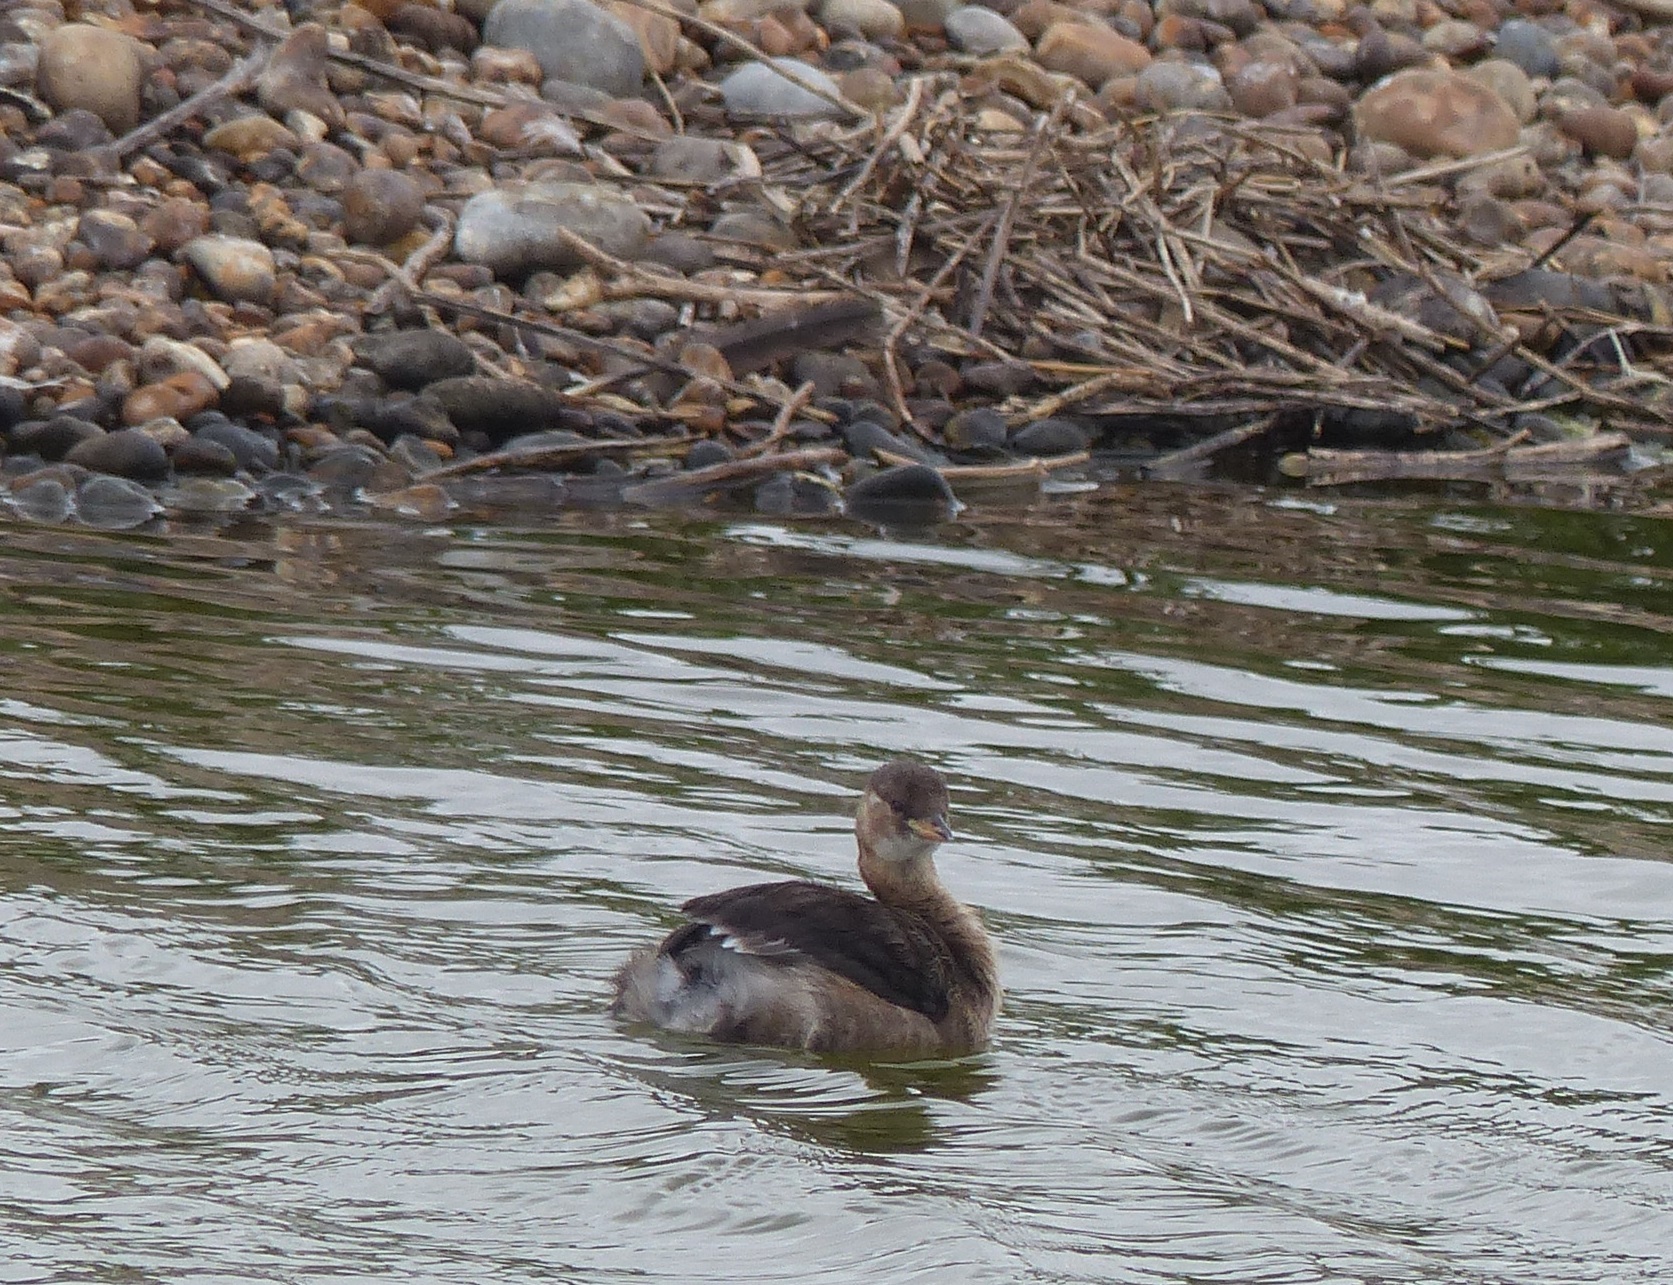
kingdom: Animalia
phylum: Chordata
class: Aves
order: Podicipediformes
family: Podicipedidae
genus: Tachybaptus
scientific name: Tachybaptus ruficollis
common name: Little grebe
